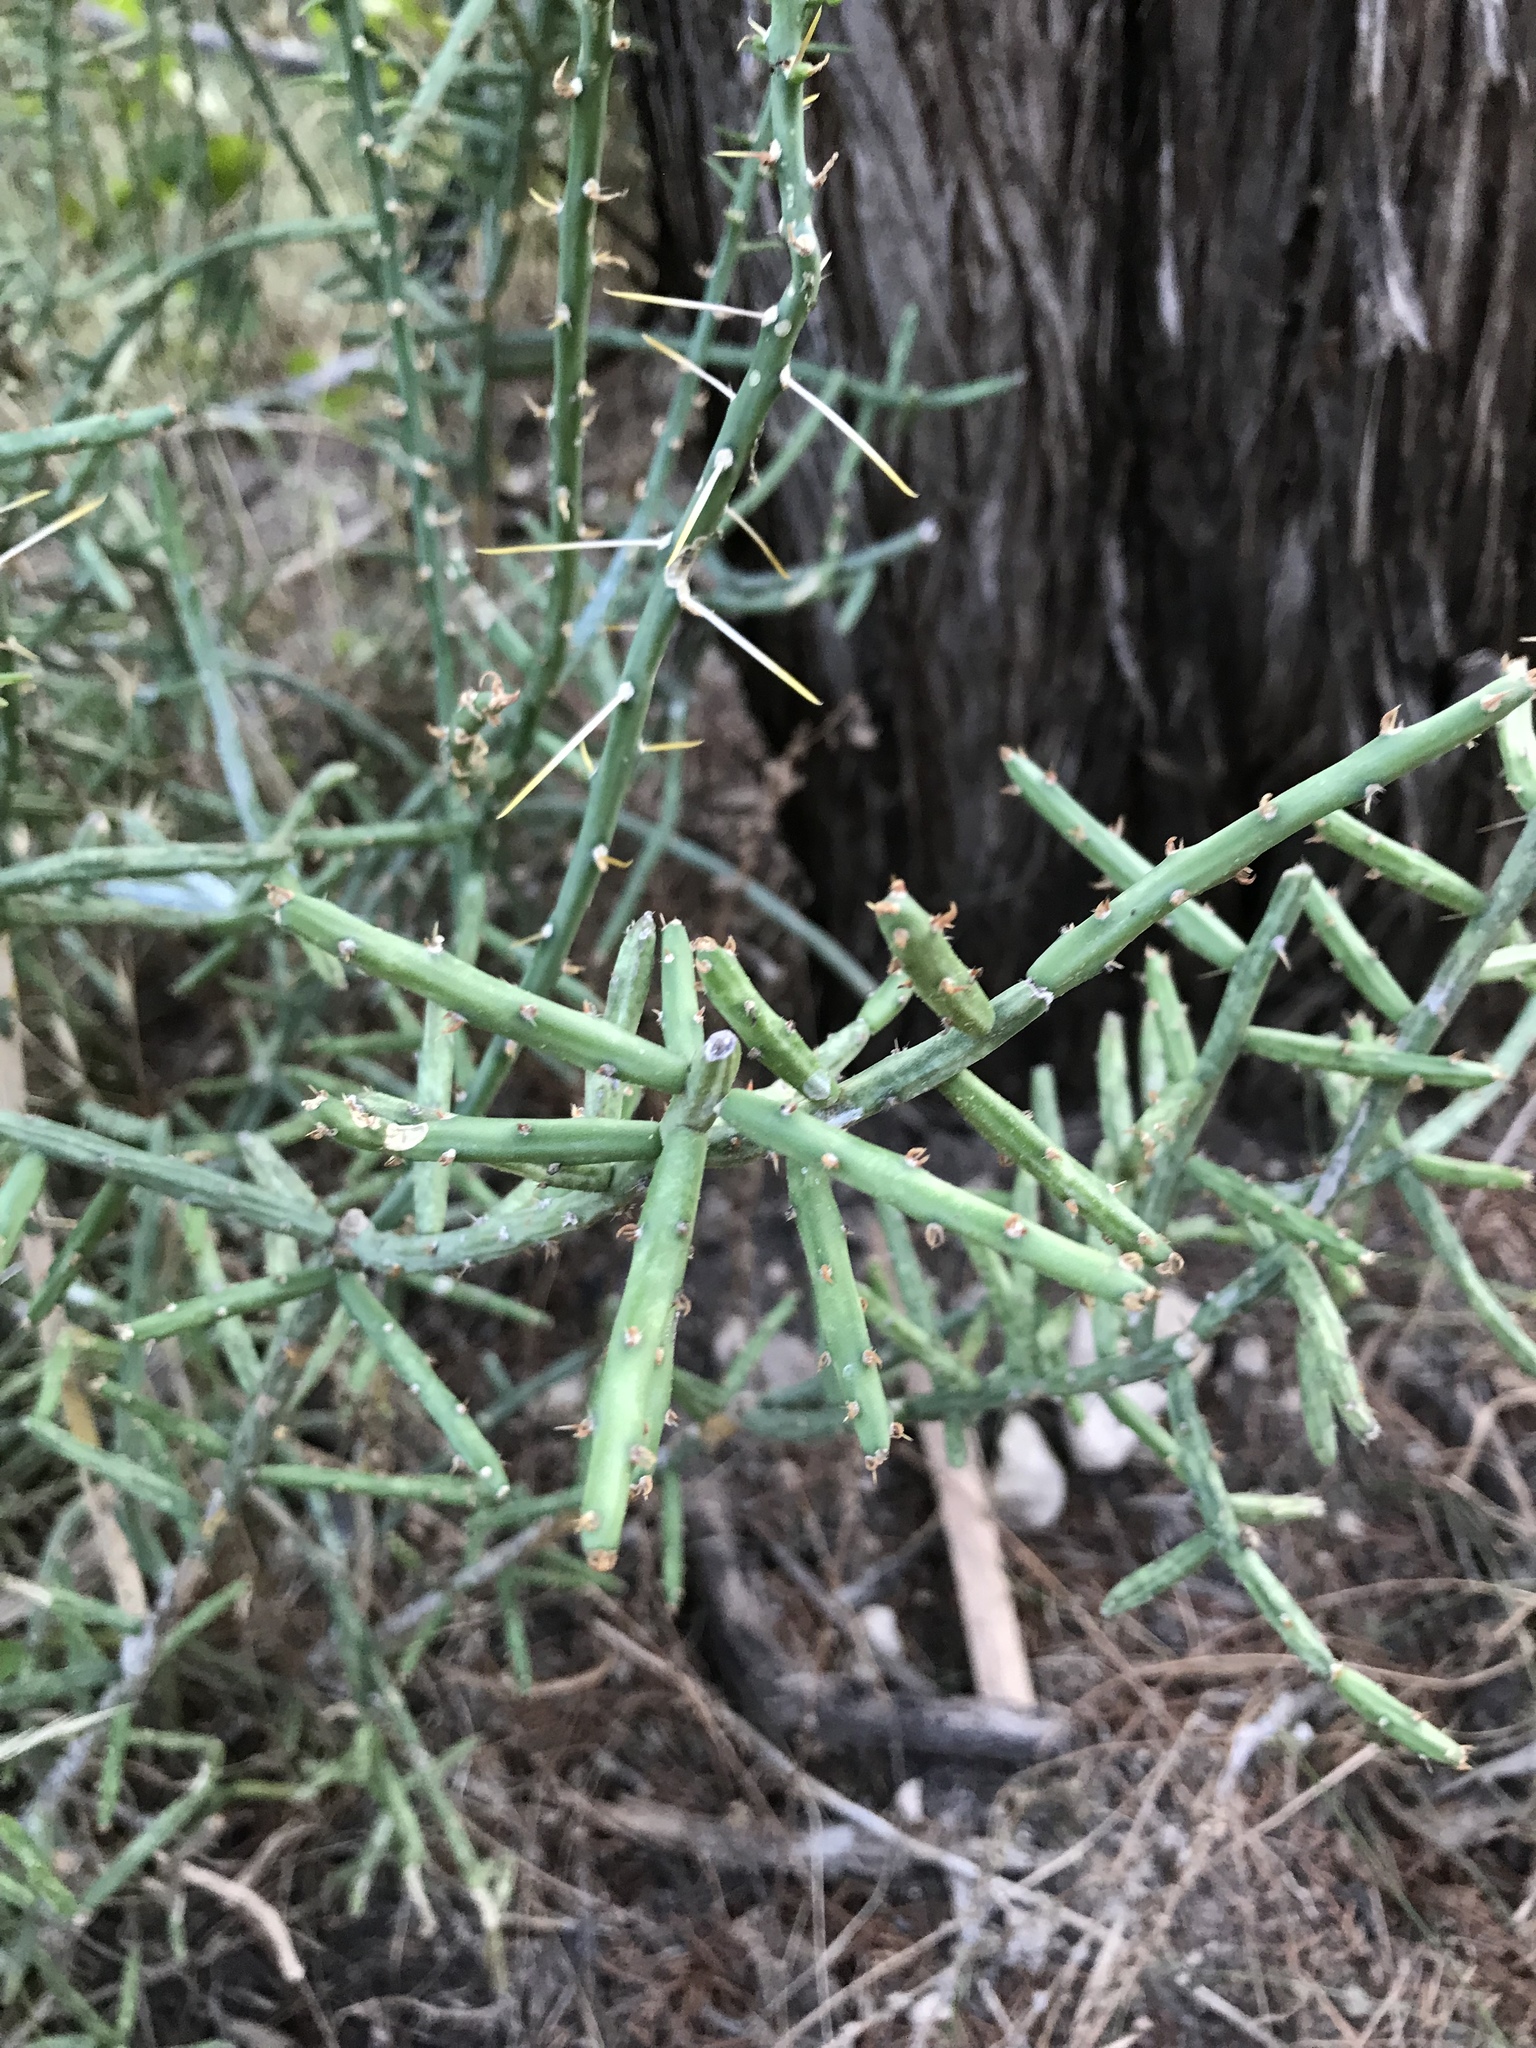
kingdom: Plantae
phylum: Tracheophyta
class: Magnoliopsida
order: Caryophyllales
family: Cactaceae
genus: Cylindropuntia
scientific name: Cylindropuntia leptocaulis
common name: Christmas cactus
